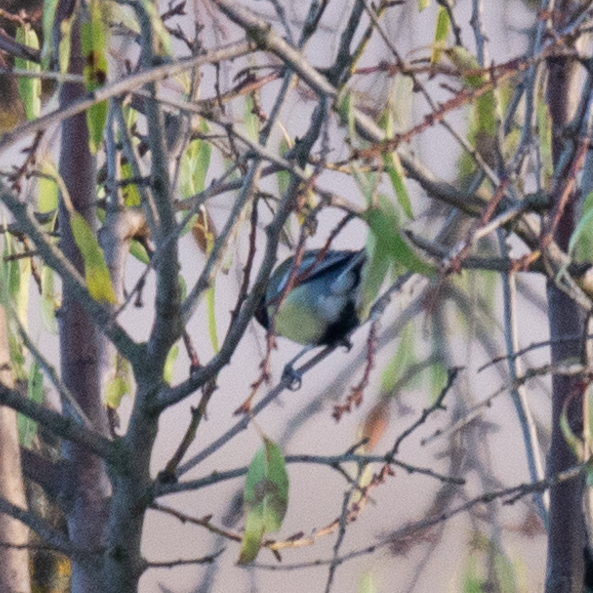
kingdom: Animalia
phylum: Chordata
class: Aves
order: Passeriformes
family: Paridae
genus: Parus
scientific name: Parus major
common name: Great tit
